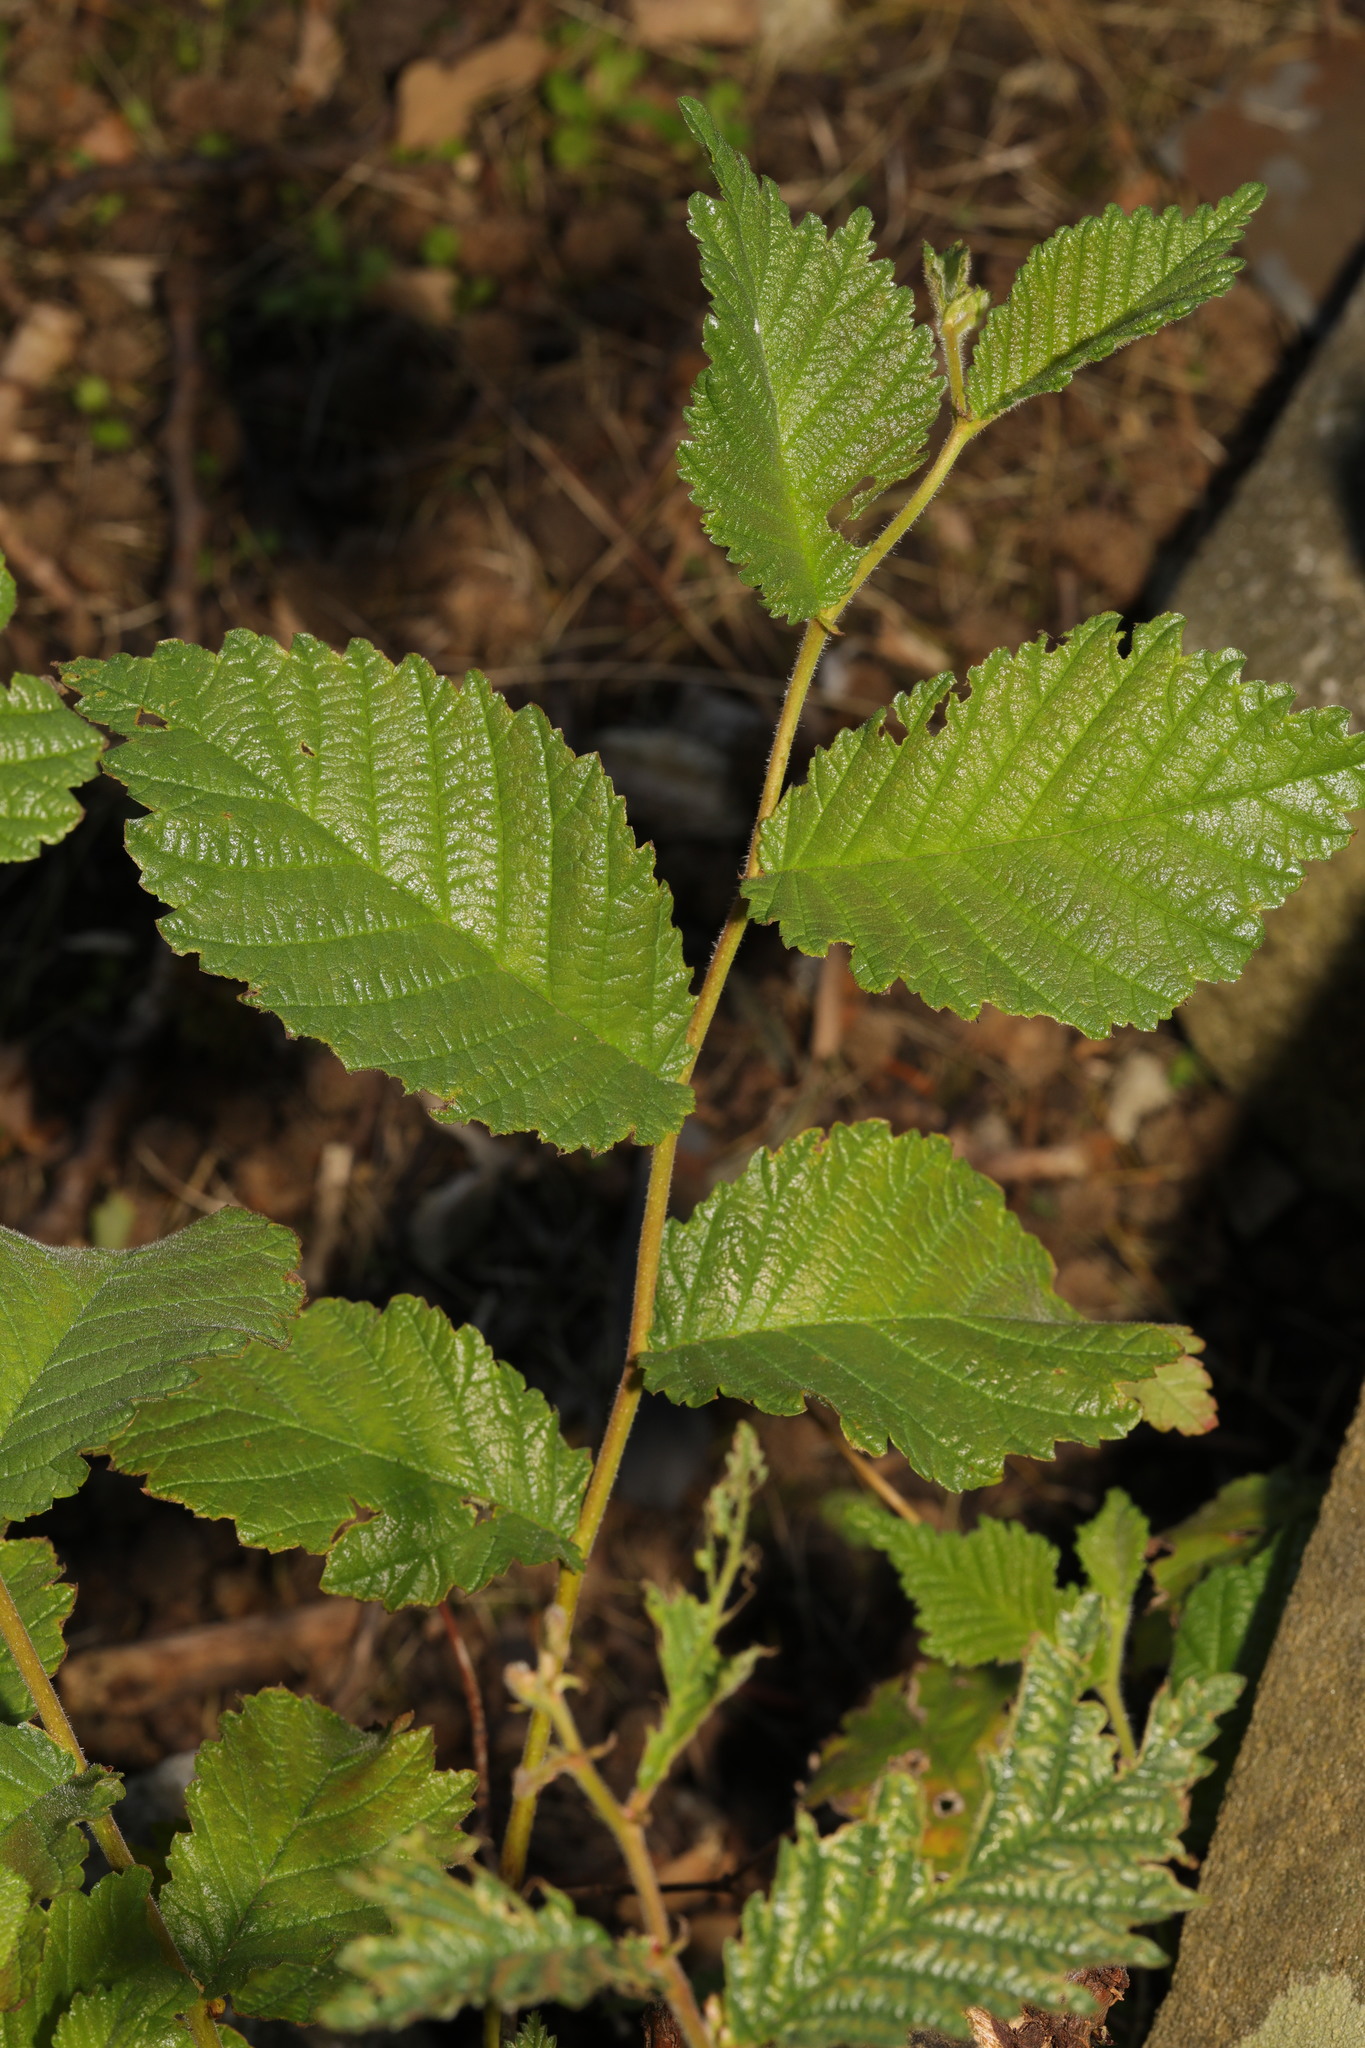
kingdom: Plantae
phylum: Tracheophyta
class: Magnoliopsida
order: Rosales
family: Ulmaceae
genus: Ulmus
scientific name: Ulmus glabra
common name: Wych elm
